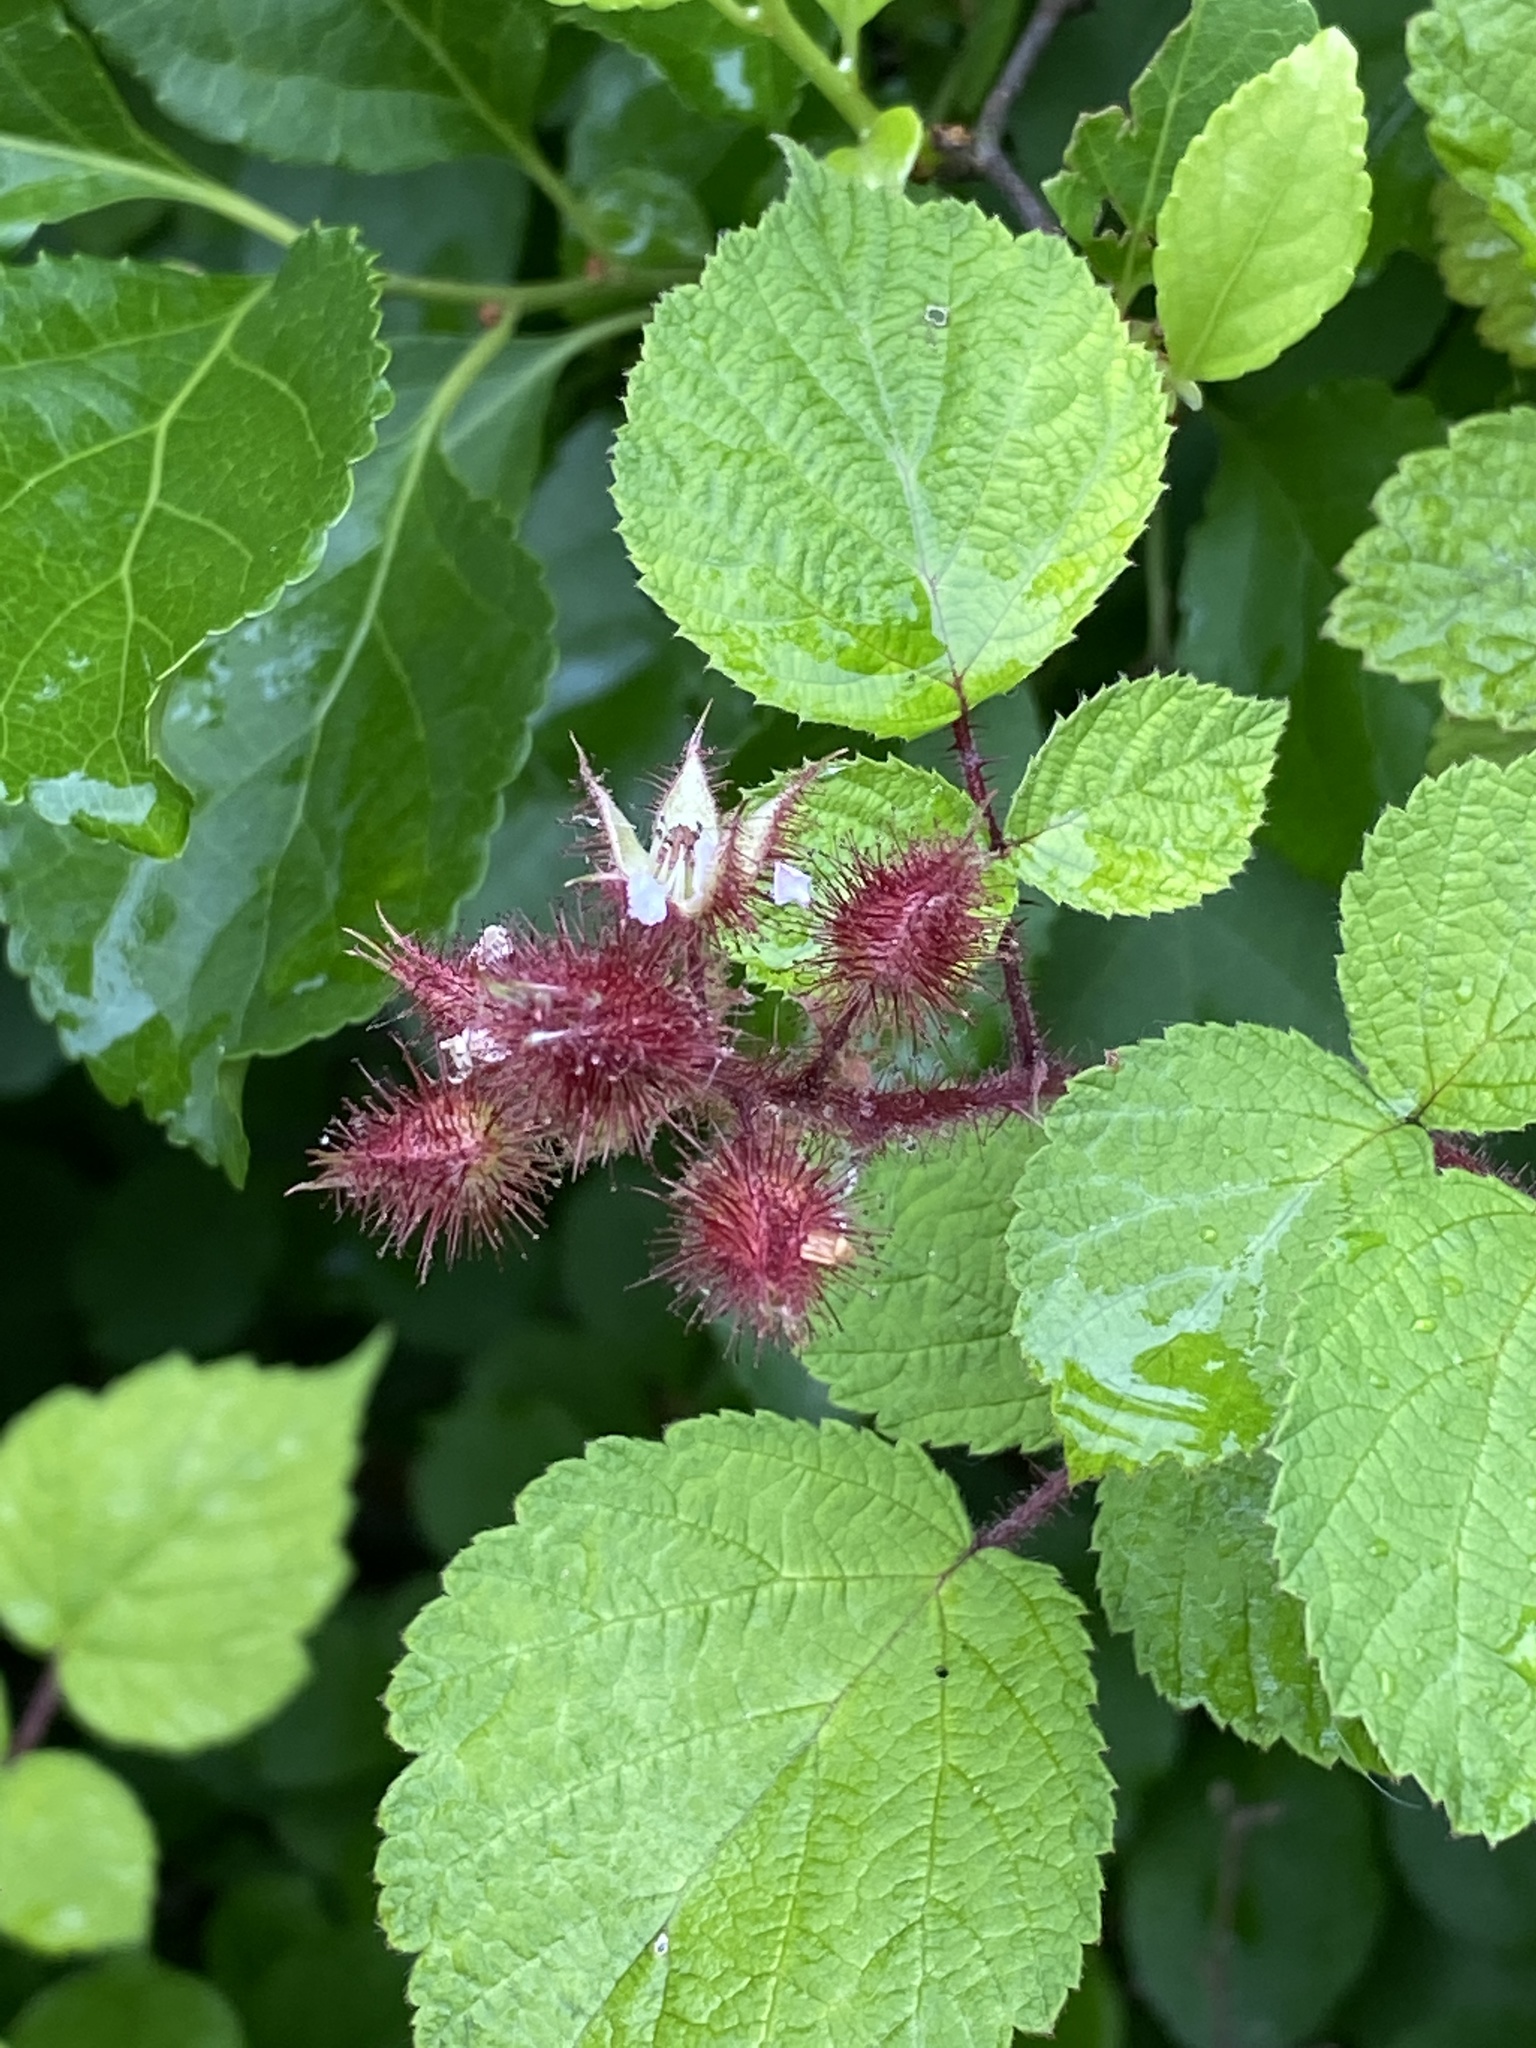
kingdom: Plantae
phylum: Tracheophyta
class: Magnoliopsida
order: Rosales
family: Rosaceae
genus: Rubus
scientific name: Rubus phoenicolasius
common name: Japanese wineberry
